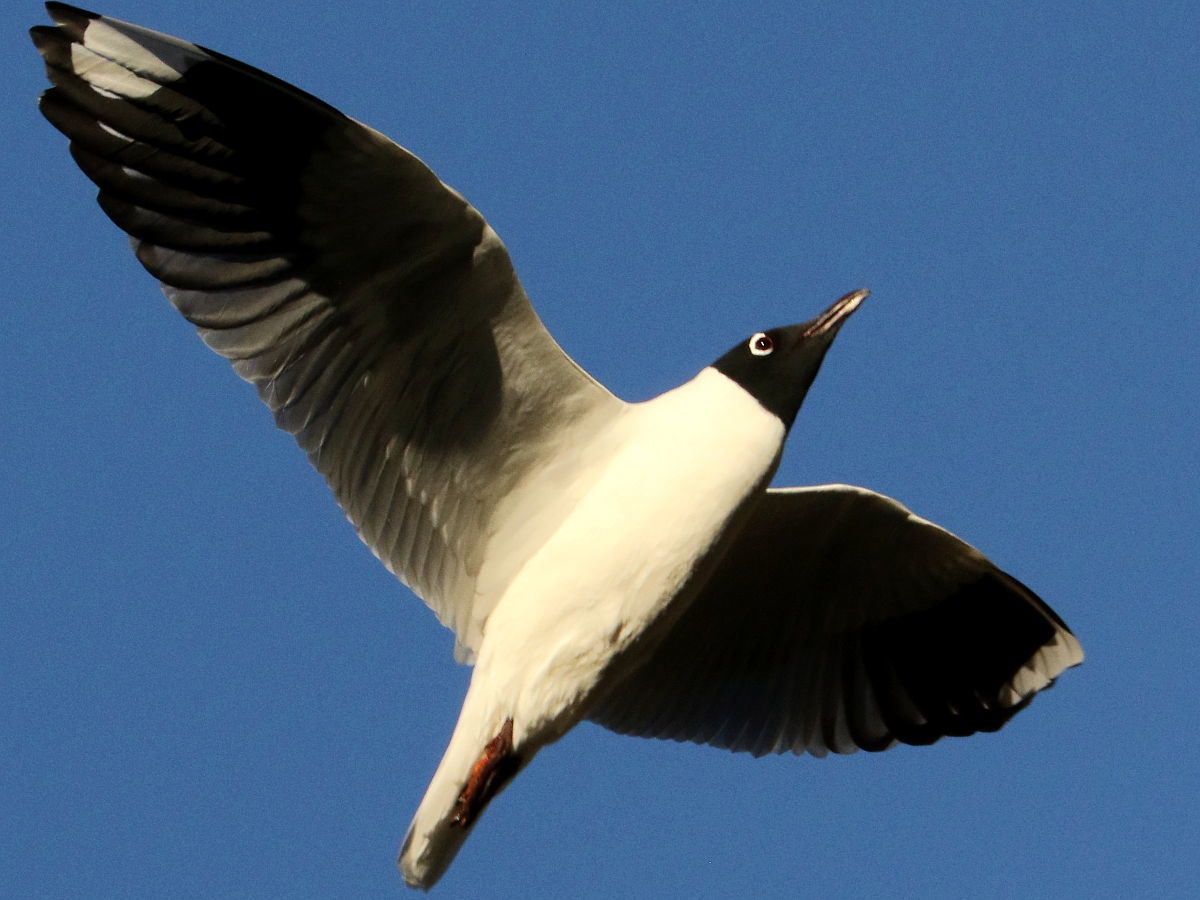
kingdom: Animalia
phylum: Chordata
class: Aves
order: Charadriiformes
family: Laridae
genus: Chroicocephalus
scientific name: Chroicocephalus serranus
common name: Andean gull
